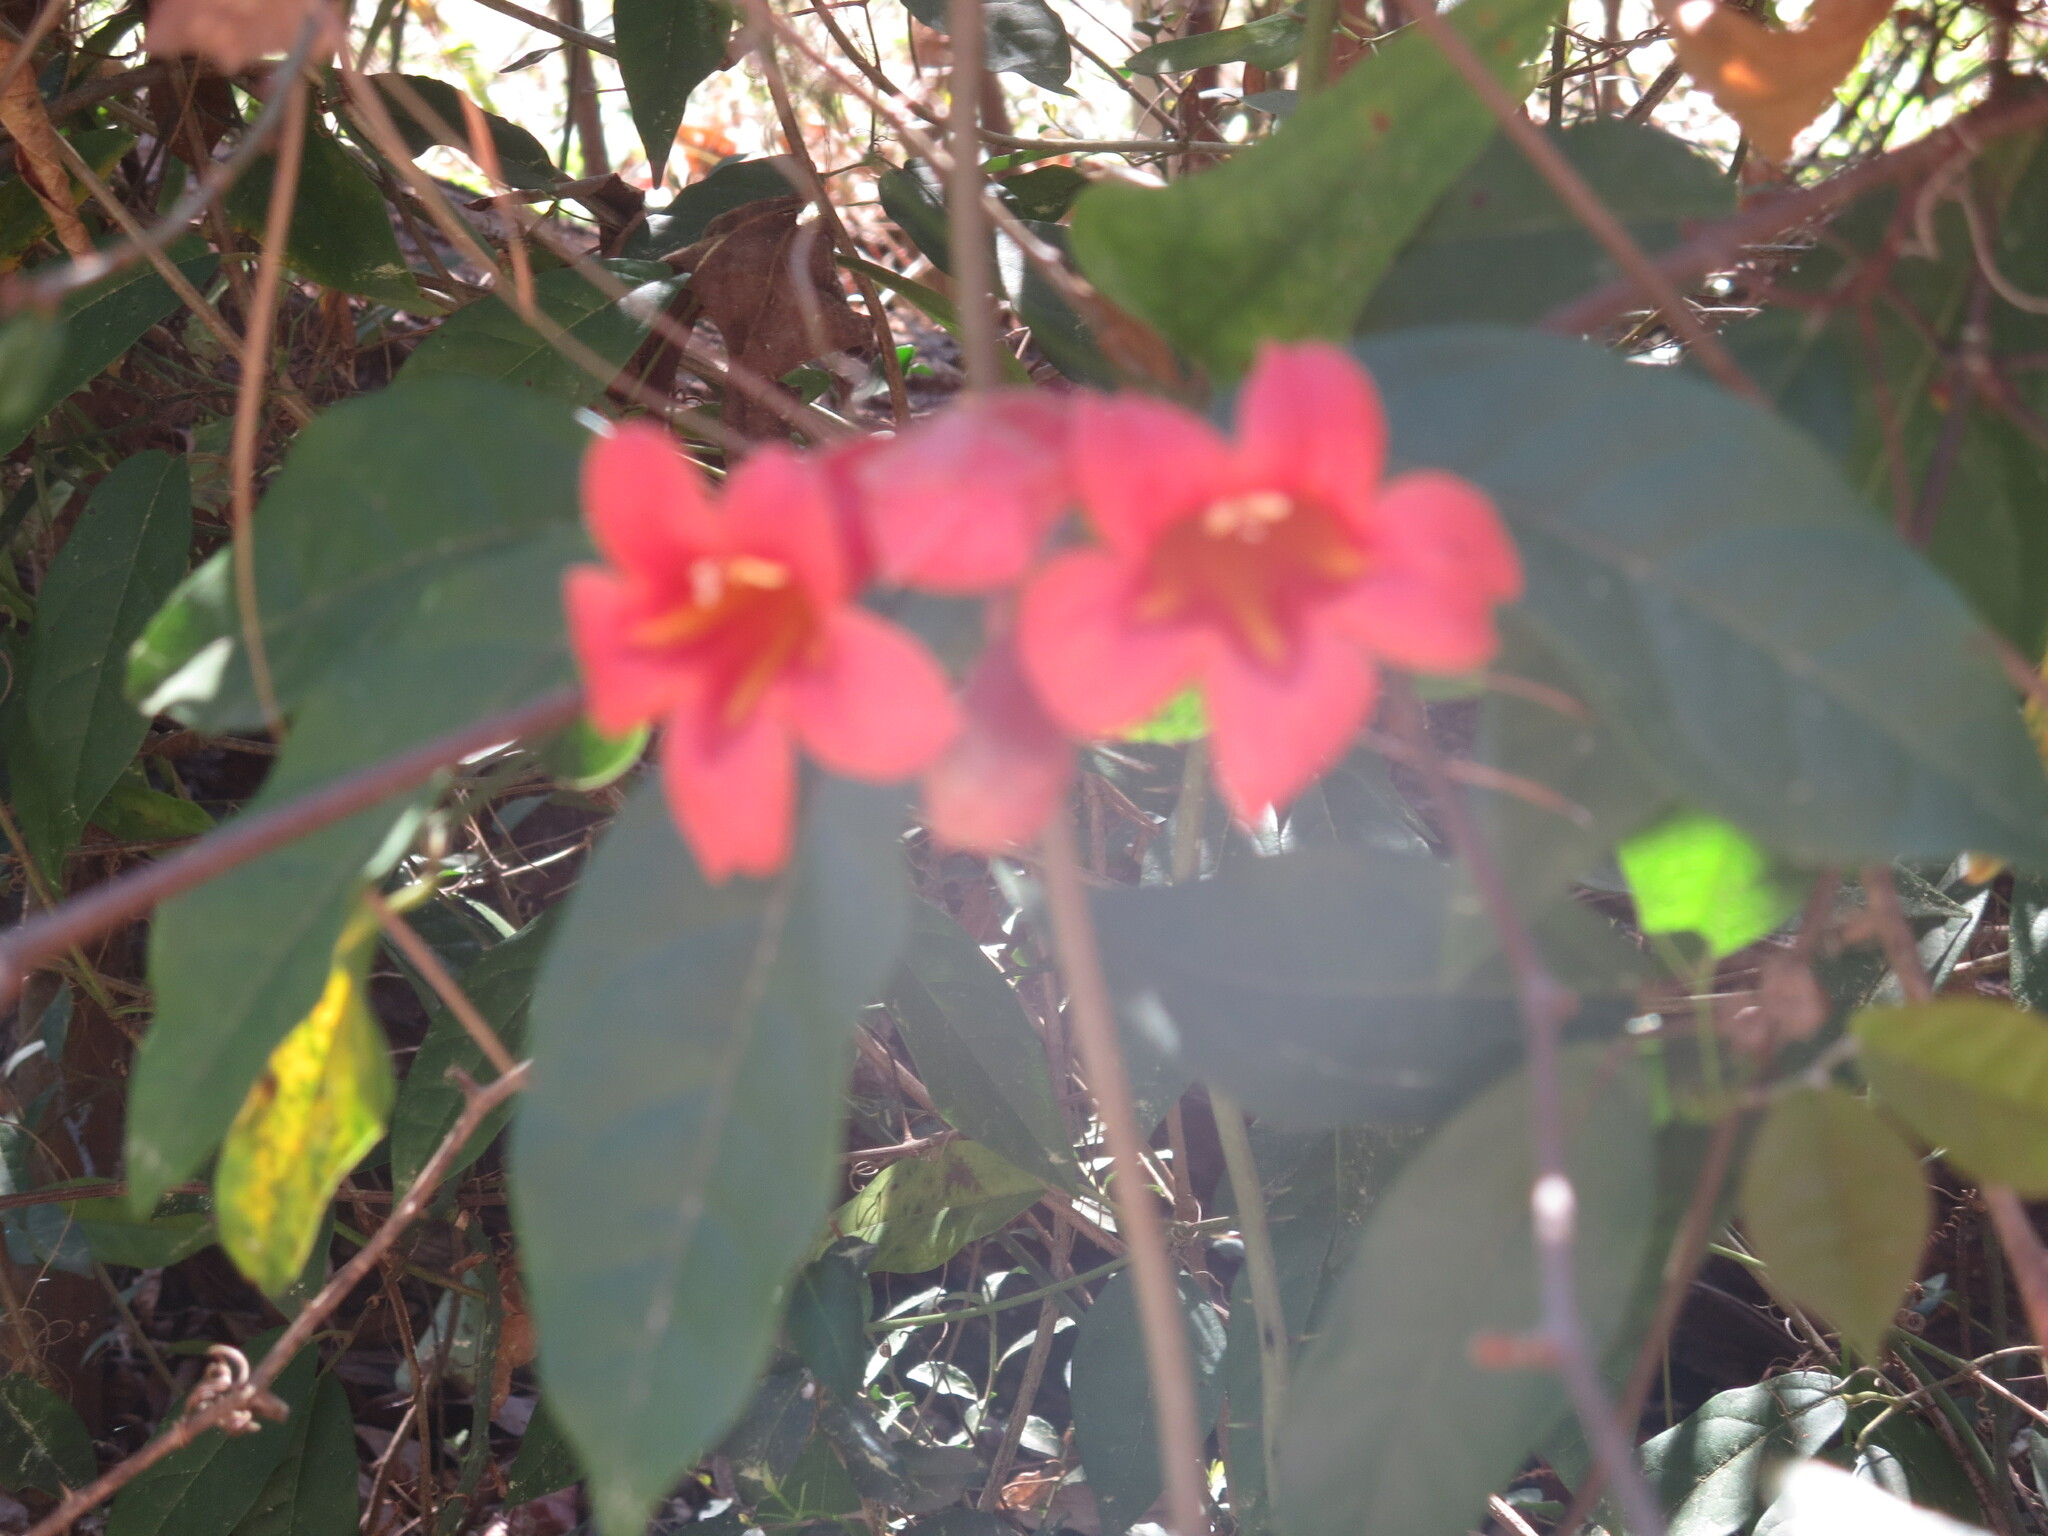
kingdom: Plantae
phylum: Tracheophyta
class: Magnoliopsida
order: Lamiales
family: Bignoniaceae
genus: Bignonia
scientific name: Bignonia capreolata
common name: Crossvine
